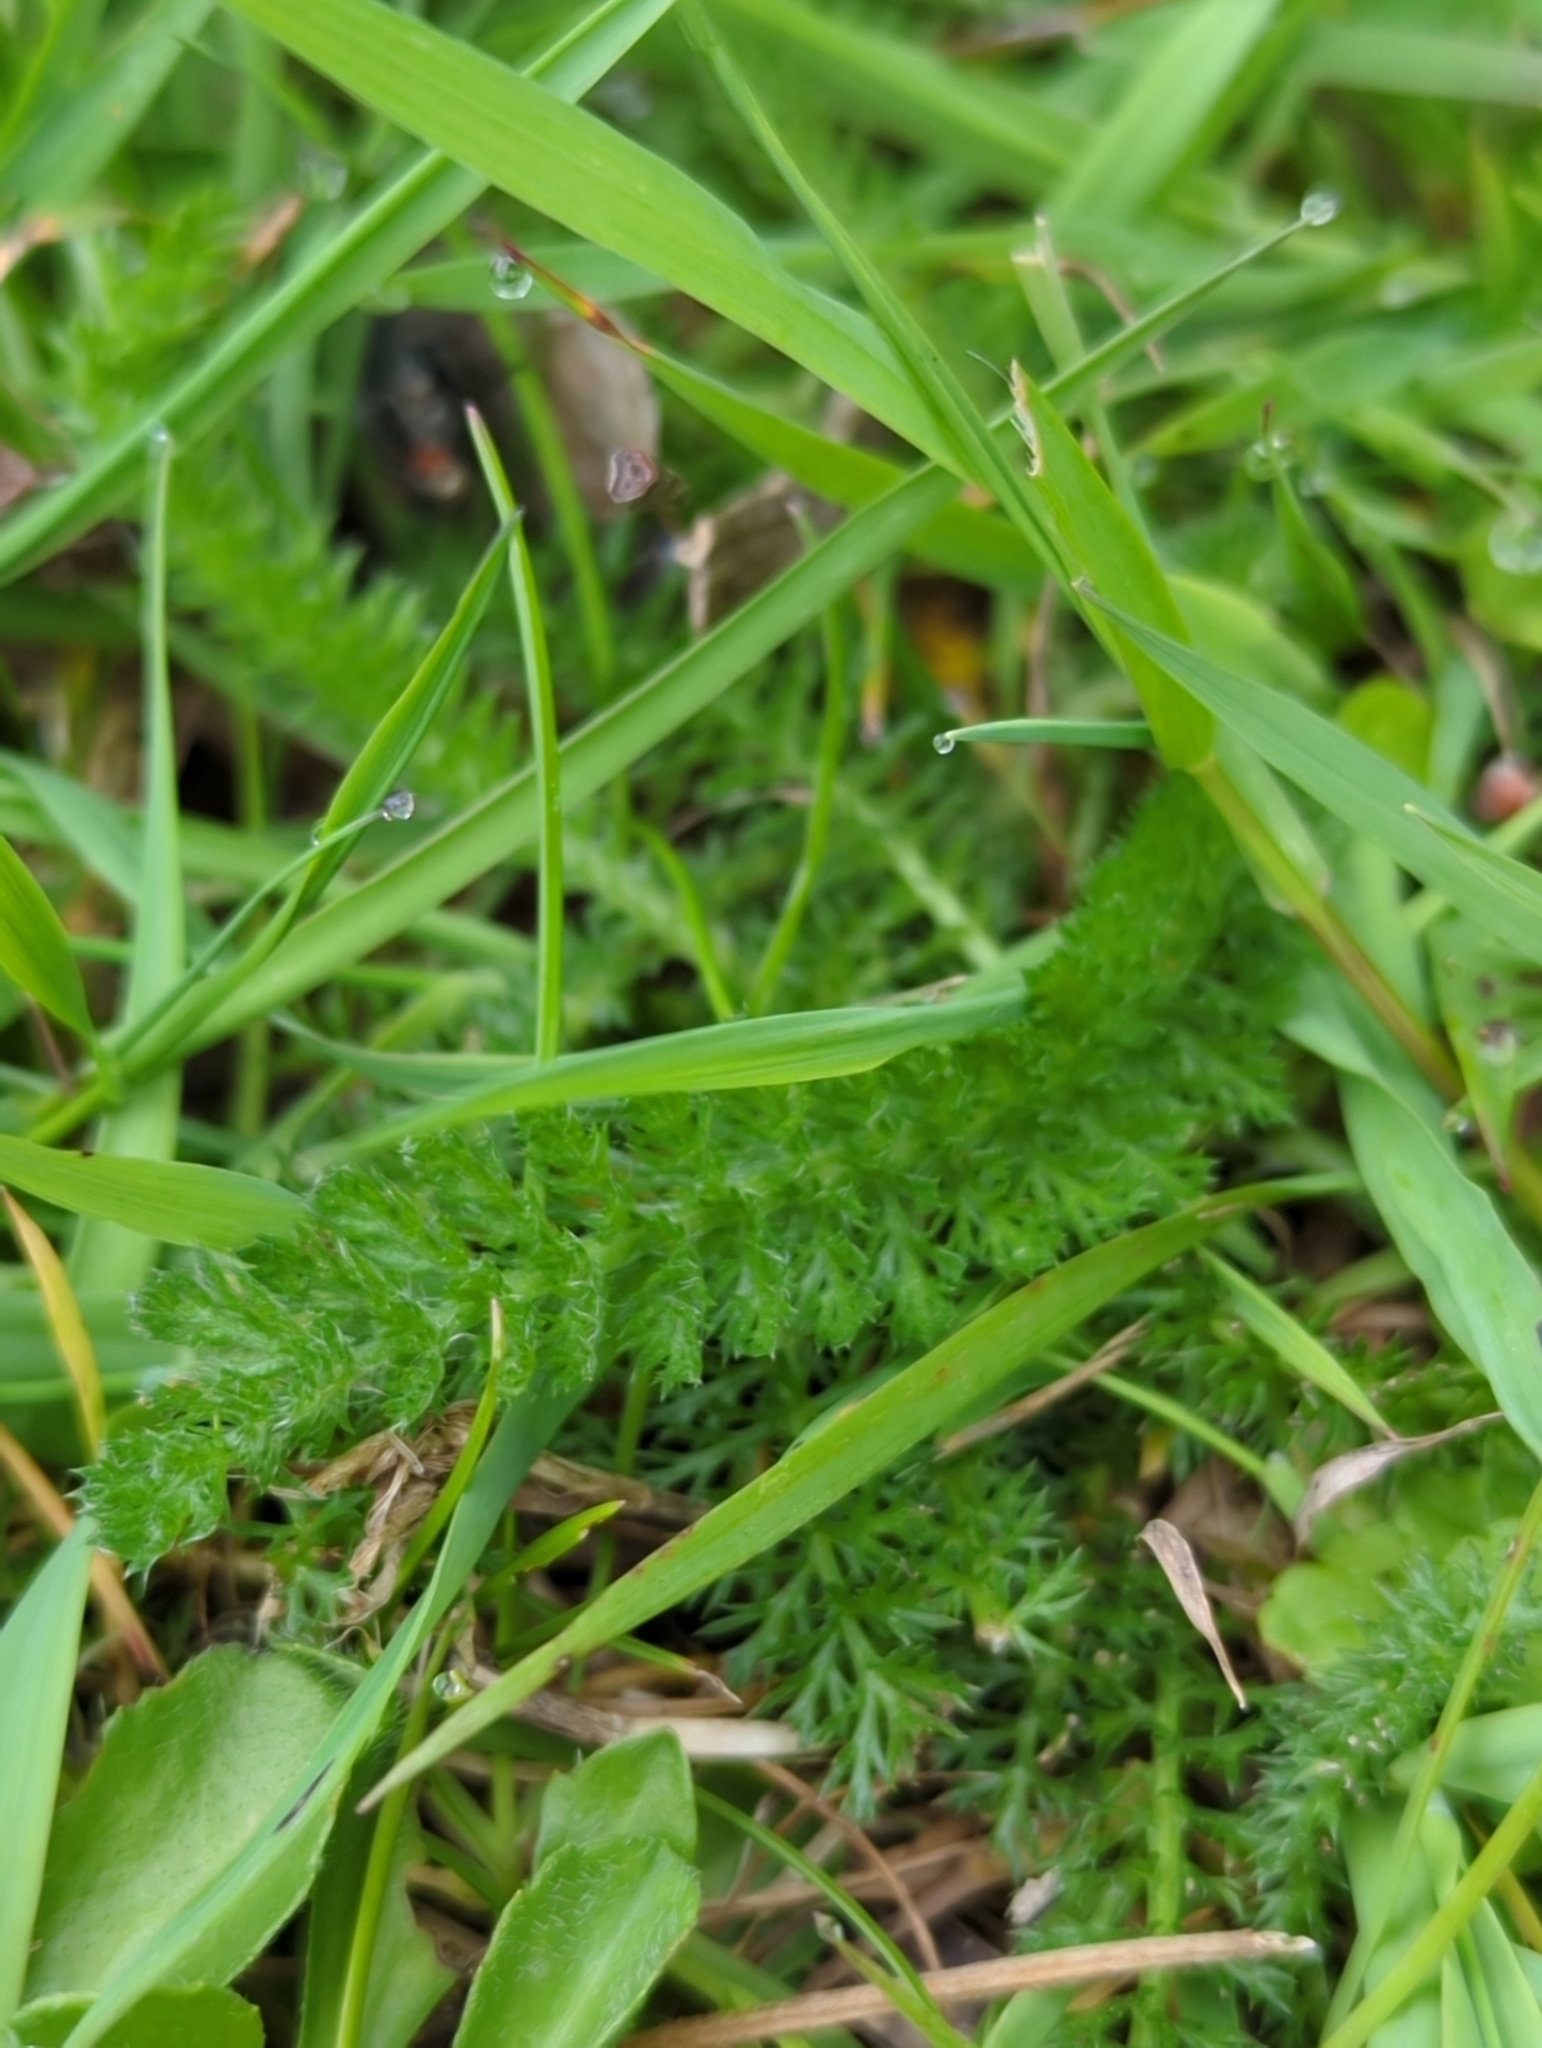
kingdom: Plantae
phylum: Tracheophyta
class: Magnoliopsida
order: Asterales
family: Asteraceae
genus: Achillea
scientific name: Achillea millefolium
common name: Yarrow
